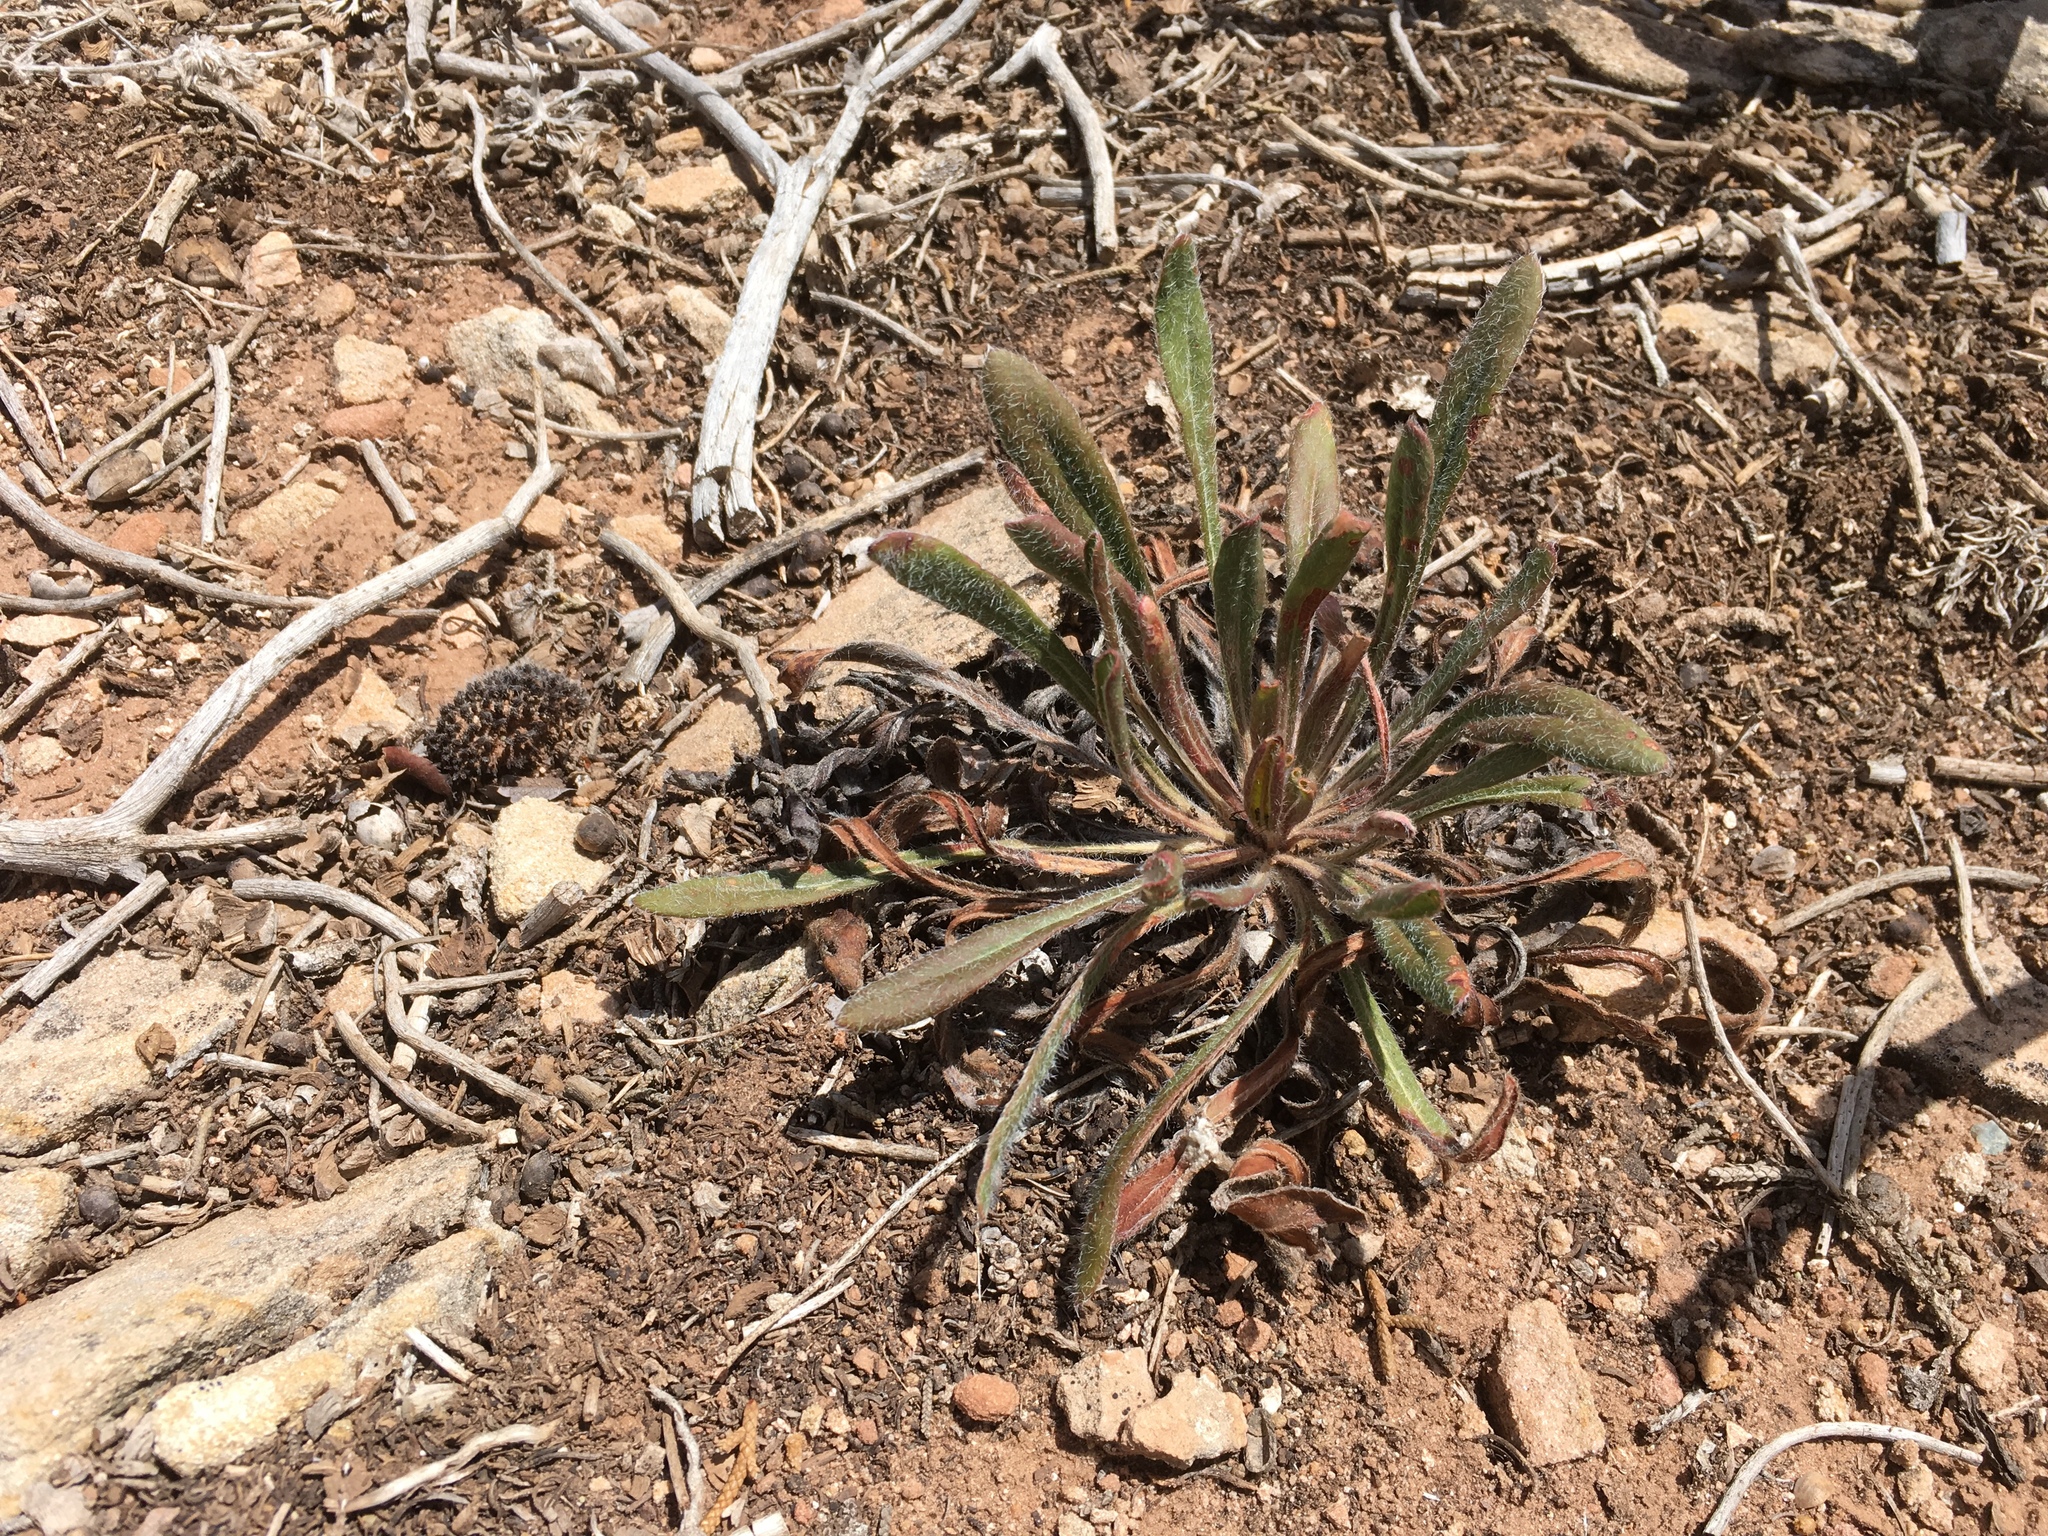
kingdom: Plantae
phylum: Tracheophyta
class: Magnoliopsida
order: Caryophyllales
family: Polygonaceae
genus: Eriogonum
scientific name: Eriogonum alatum
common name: Winged eriogonum
